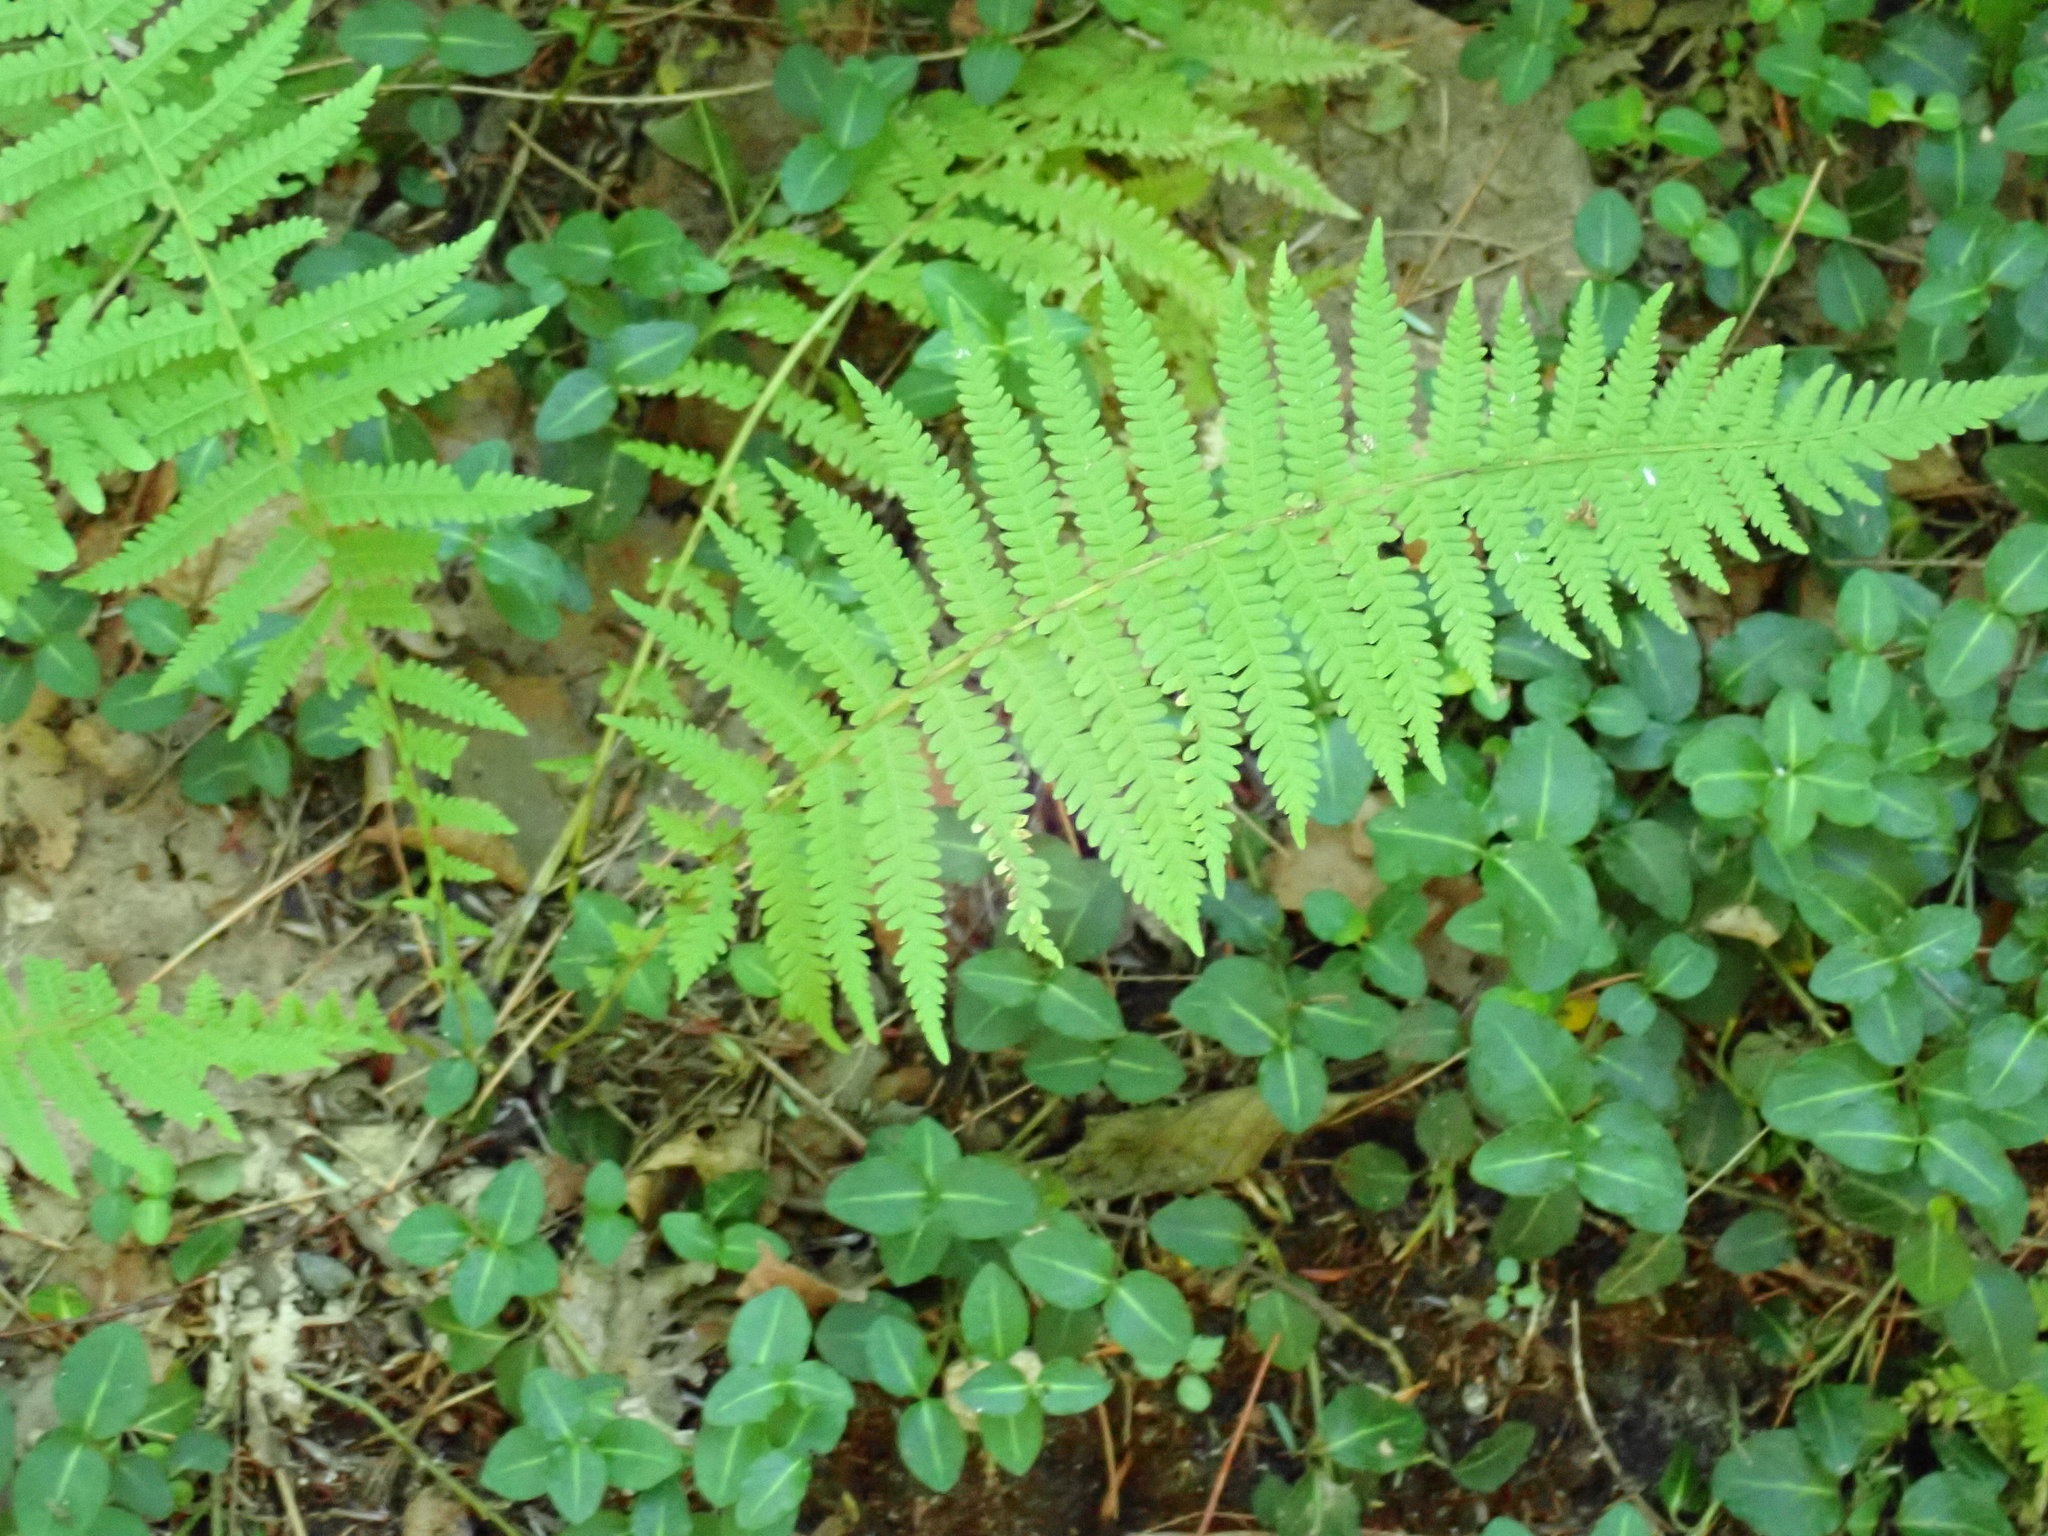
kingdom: Plantae
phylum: Tracheophyta
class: Polypodiopsida
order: Polypodiales
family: Thelypteridaceae
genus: Amauropelta
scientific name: Amauropelta noveboracensis
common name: New york fern
